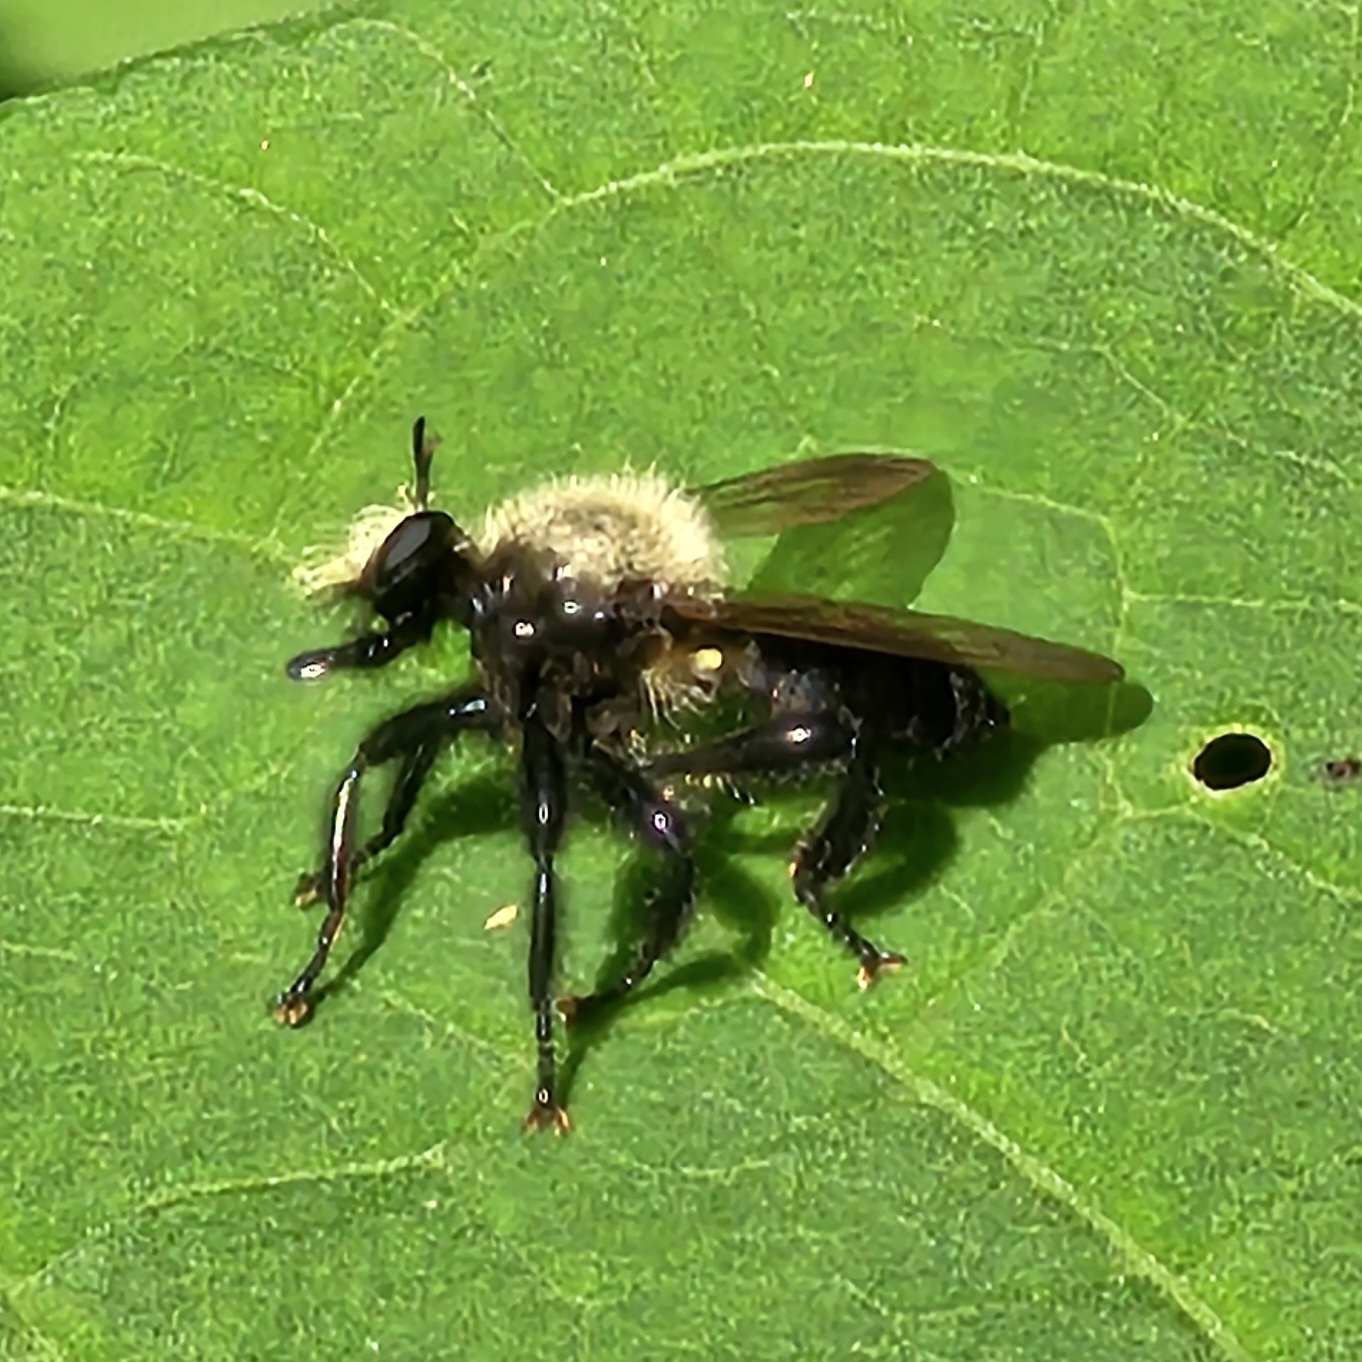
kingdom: Animalia
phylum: Arthropoda
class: Insecta
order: Diptera
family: Asilidae
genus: Laphria
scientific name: Laphria flavicollis
